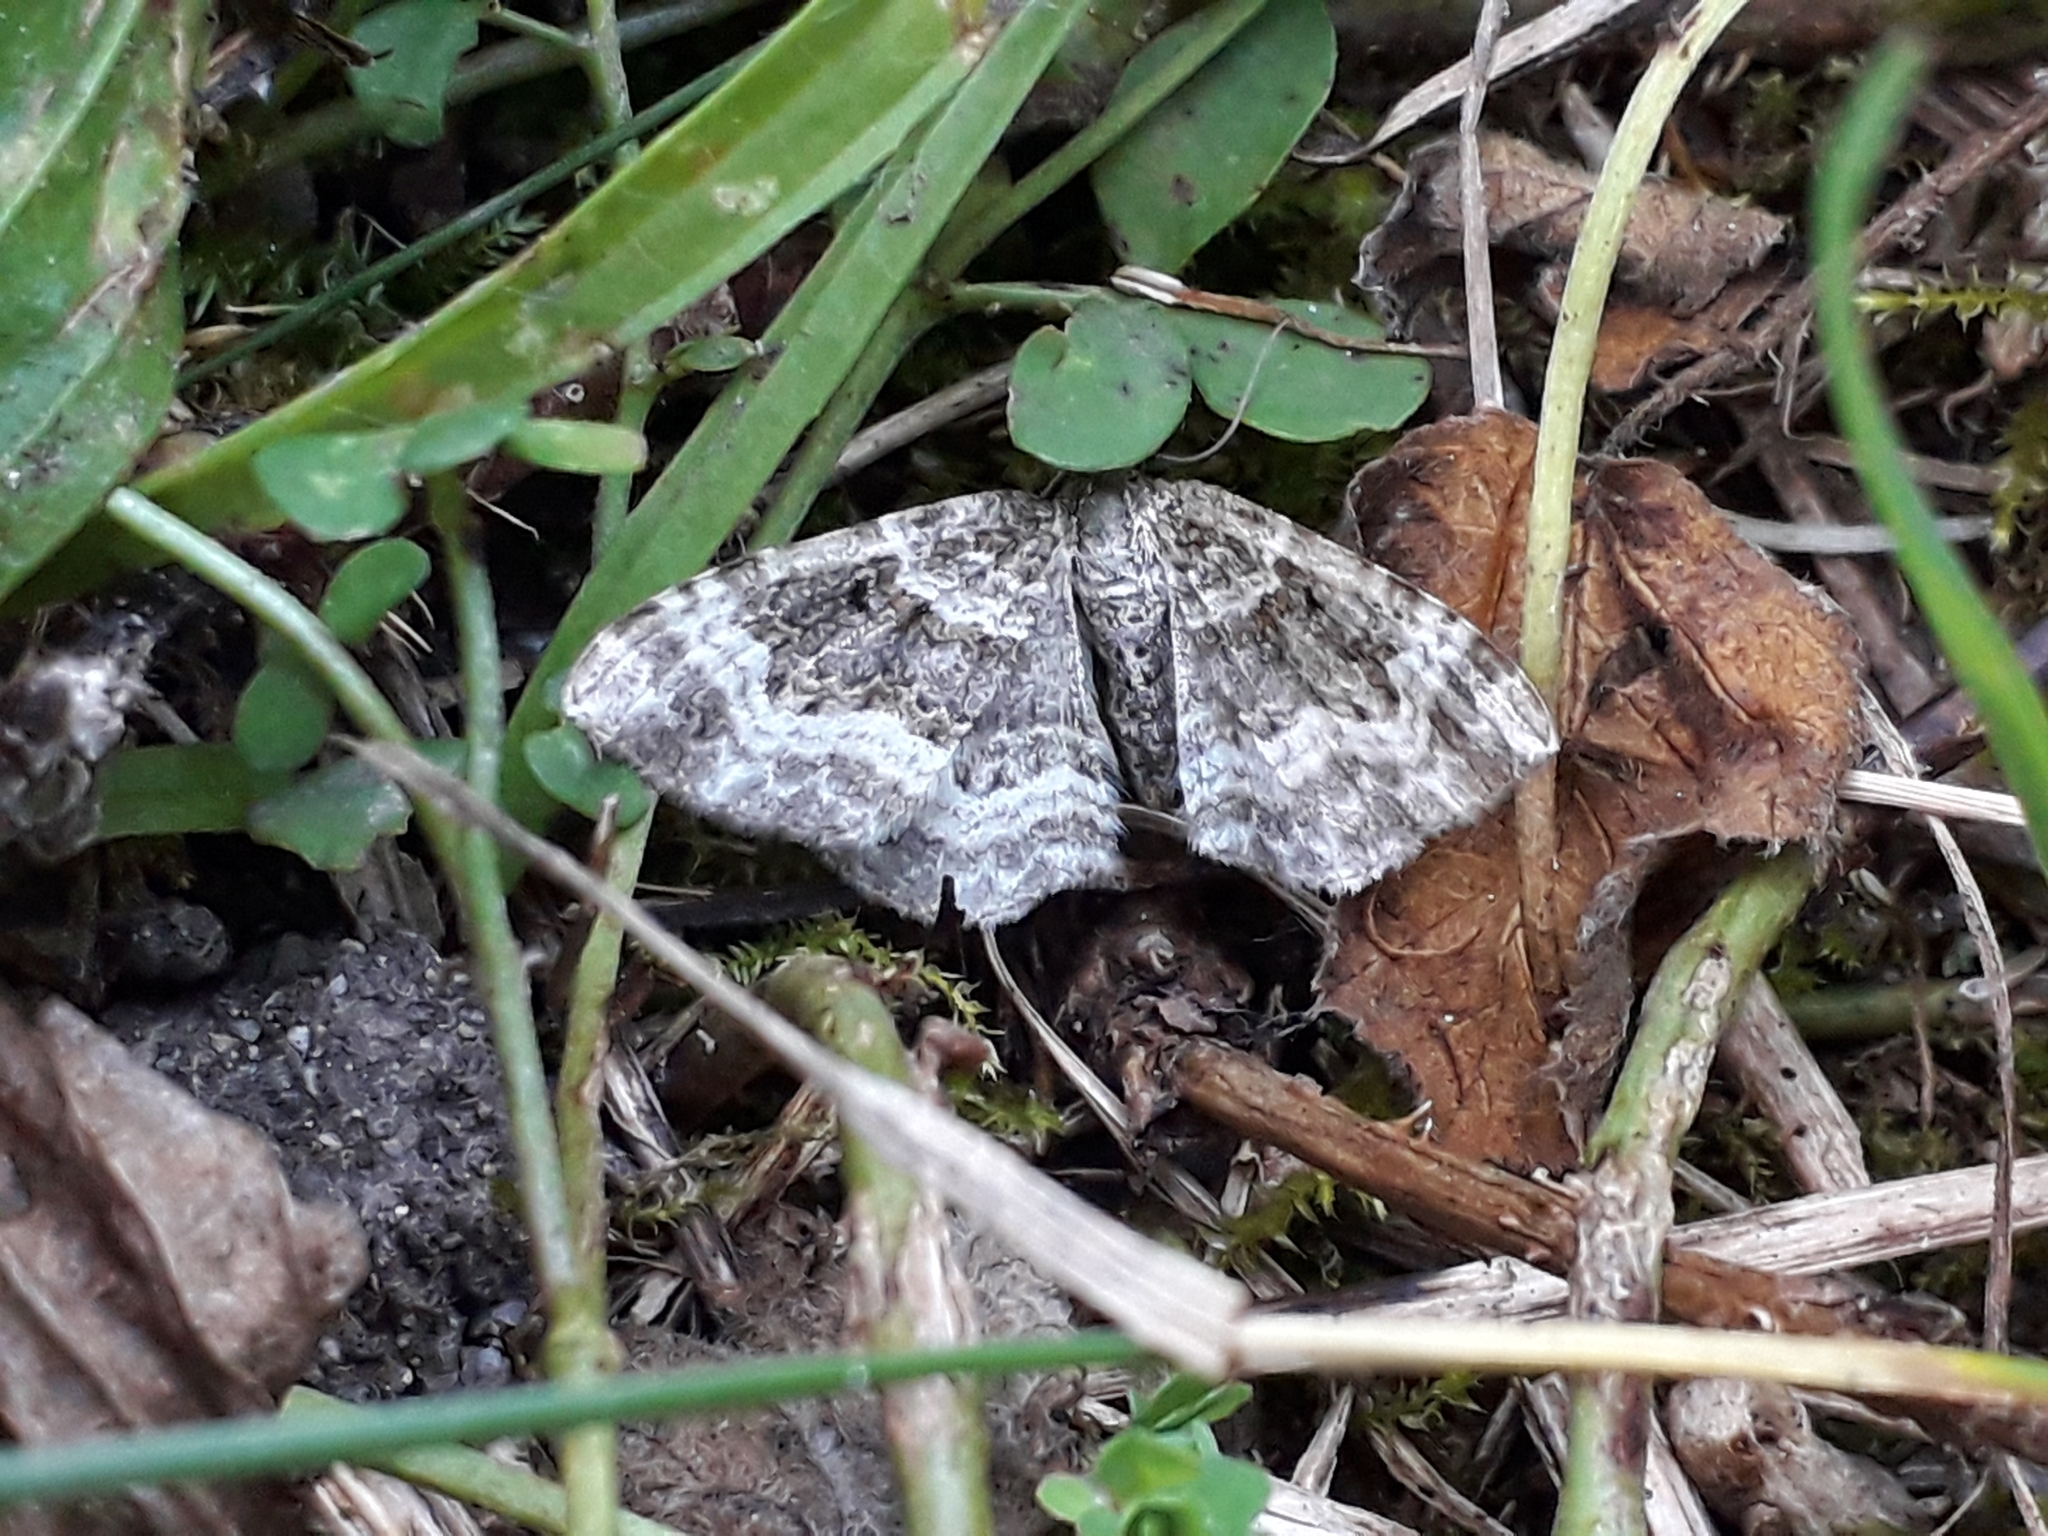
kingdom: Animalia
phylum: Arthropoda
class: Insecta
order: Lepidoptera
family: Geometridae
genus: Epirrhoe
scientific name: Epirrhoe alternata
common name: Common carpet
